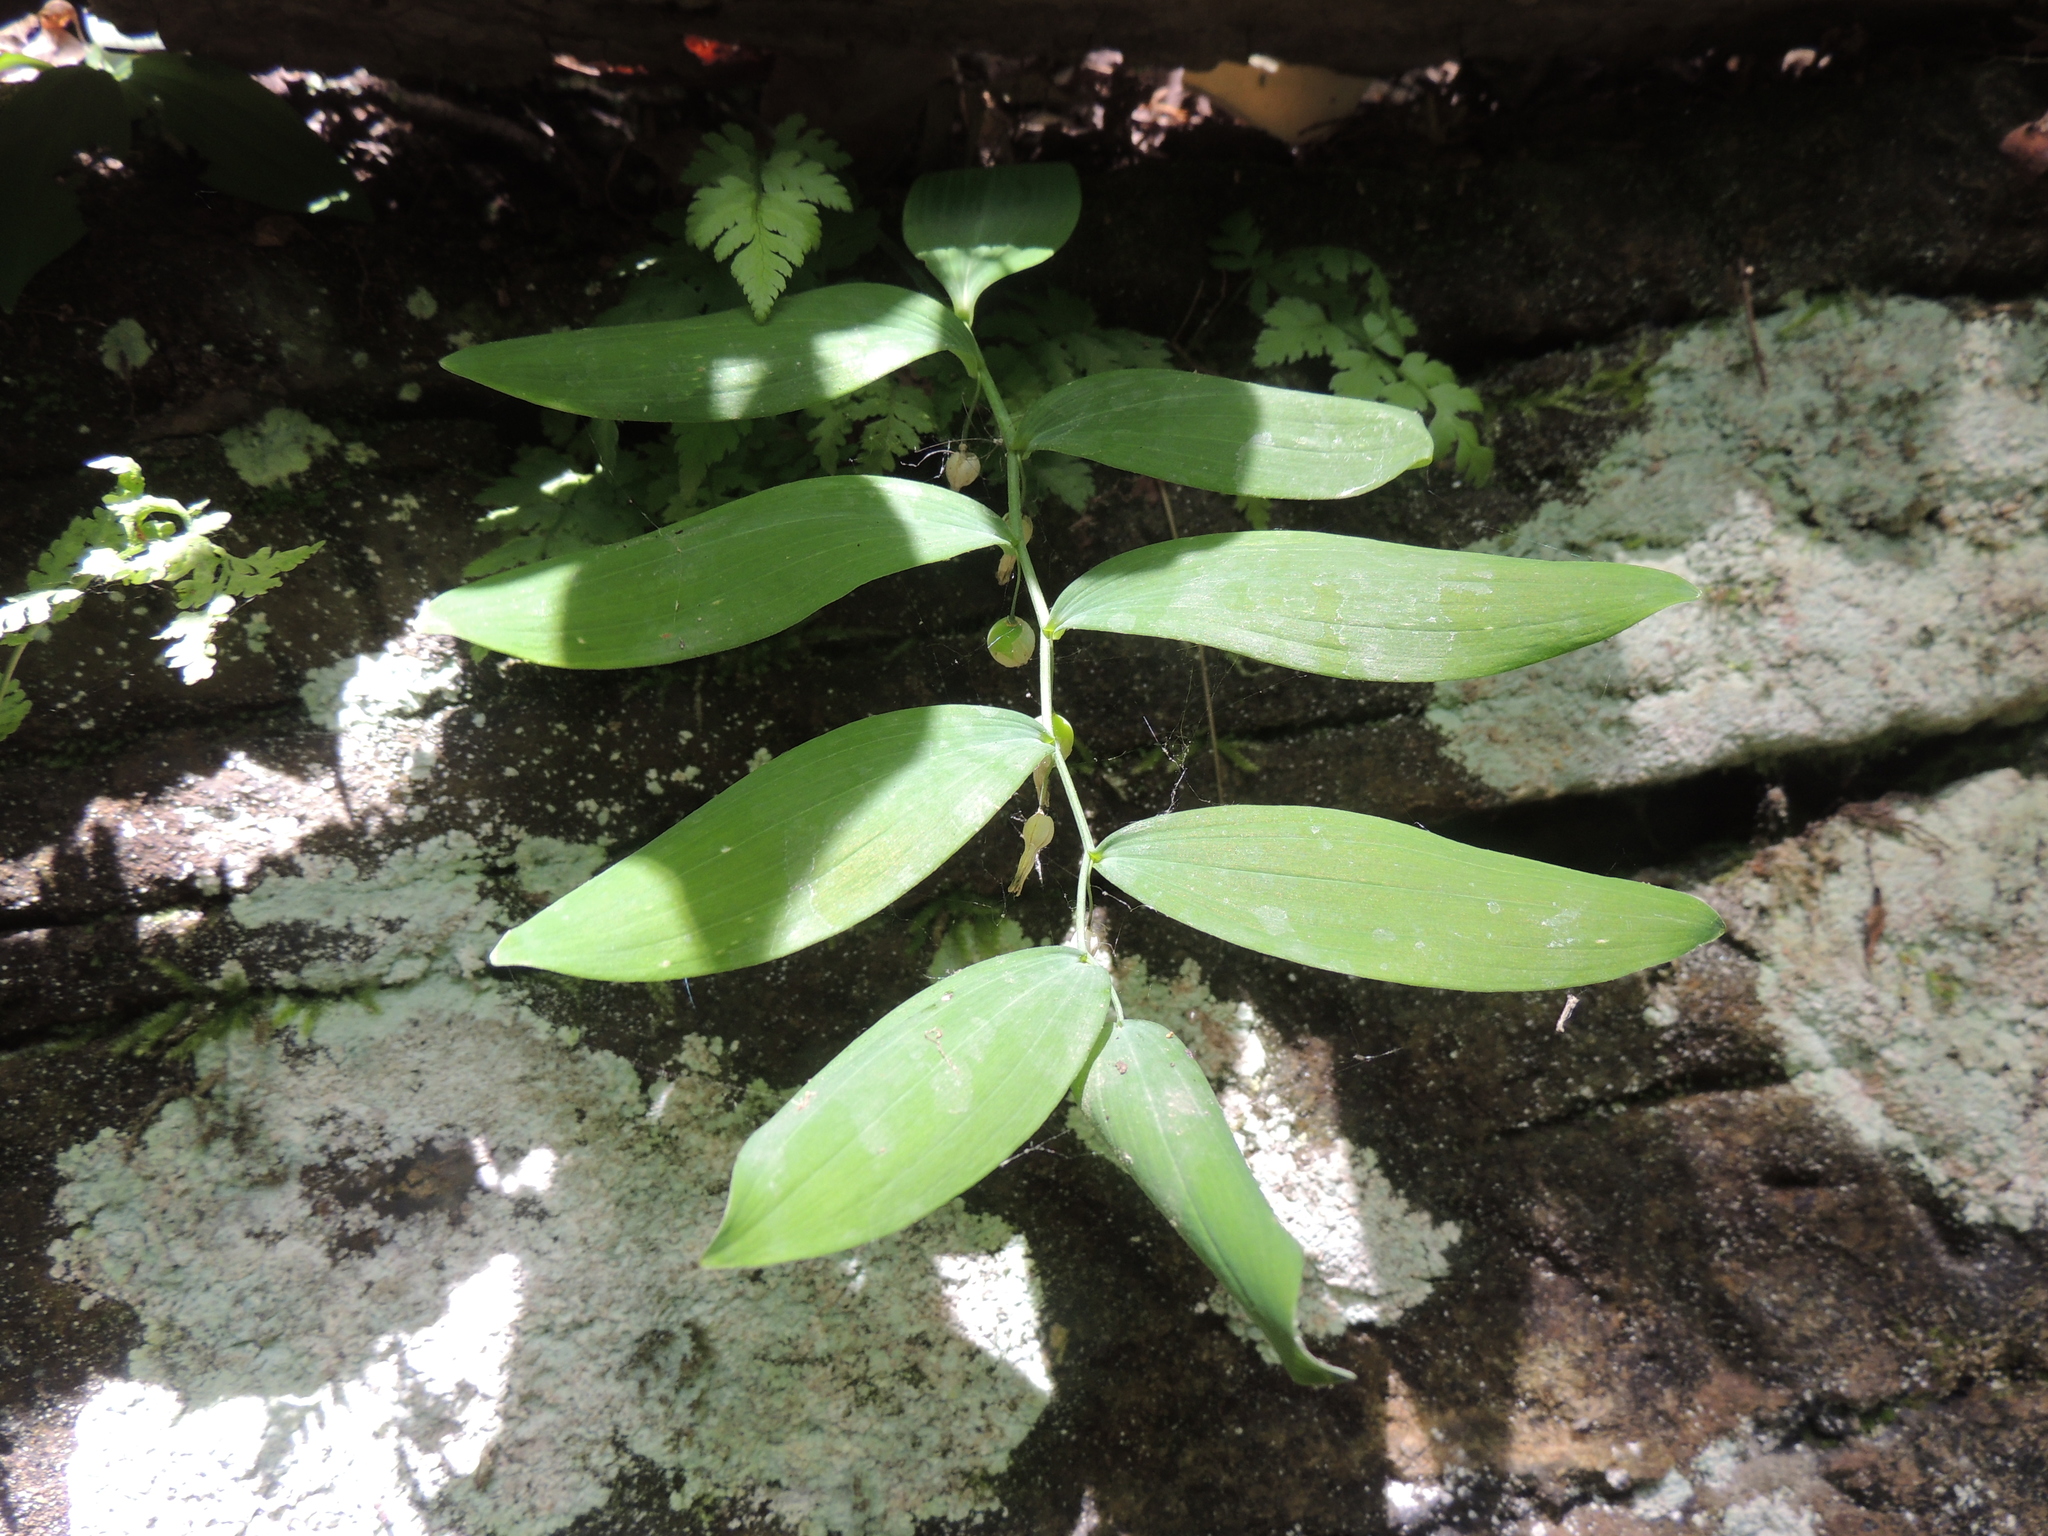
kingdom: Plantae
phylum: Tracheophyta
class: Liliopsida
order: Asparagales
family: Asparagaceae
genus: Polygonatum
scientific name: Polygonatum pubescens
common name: Downy solomon's seal
